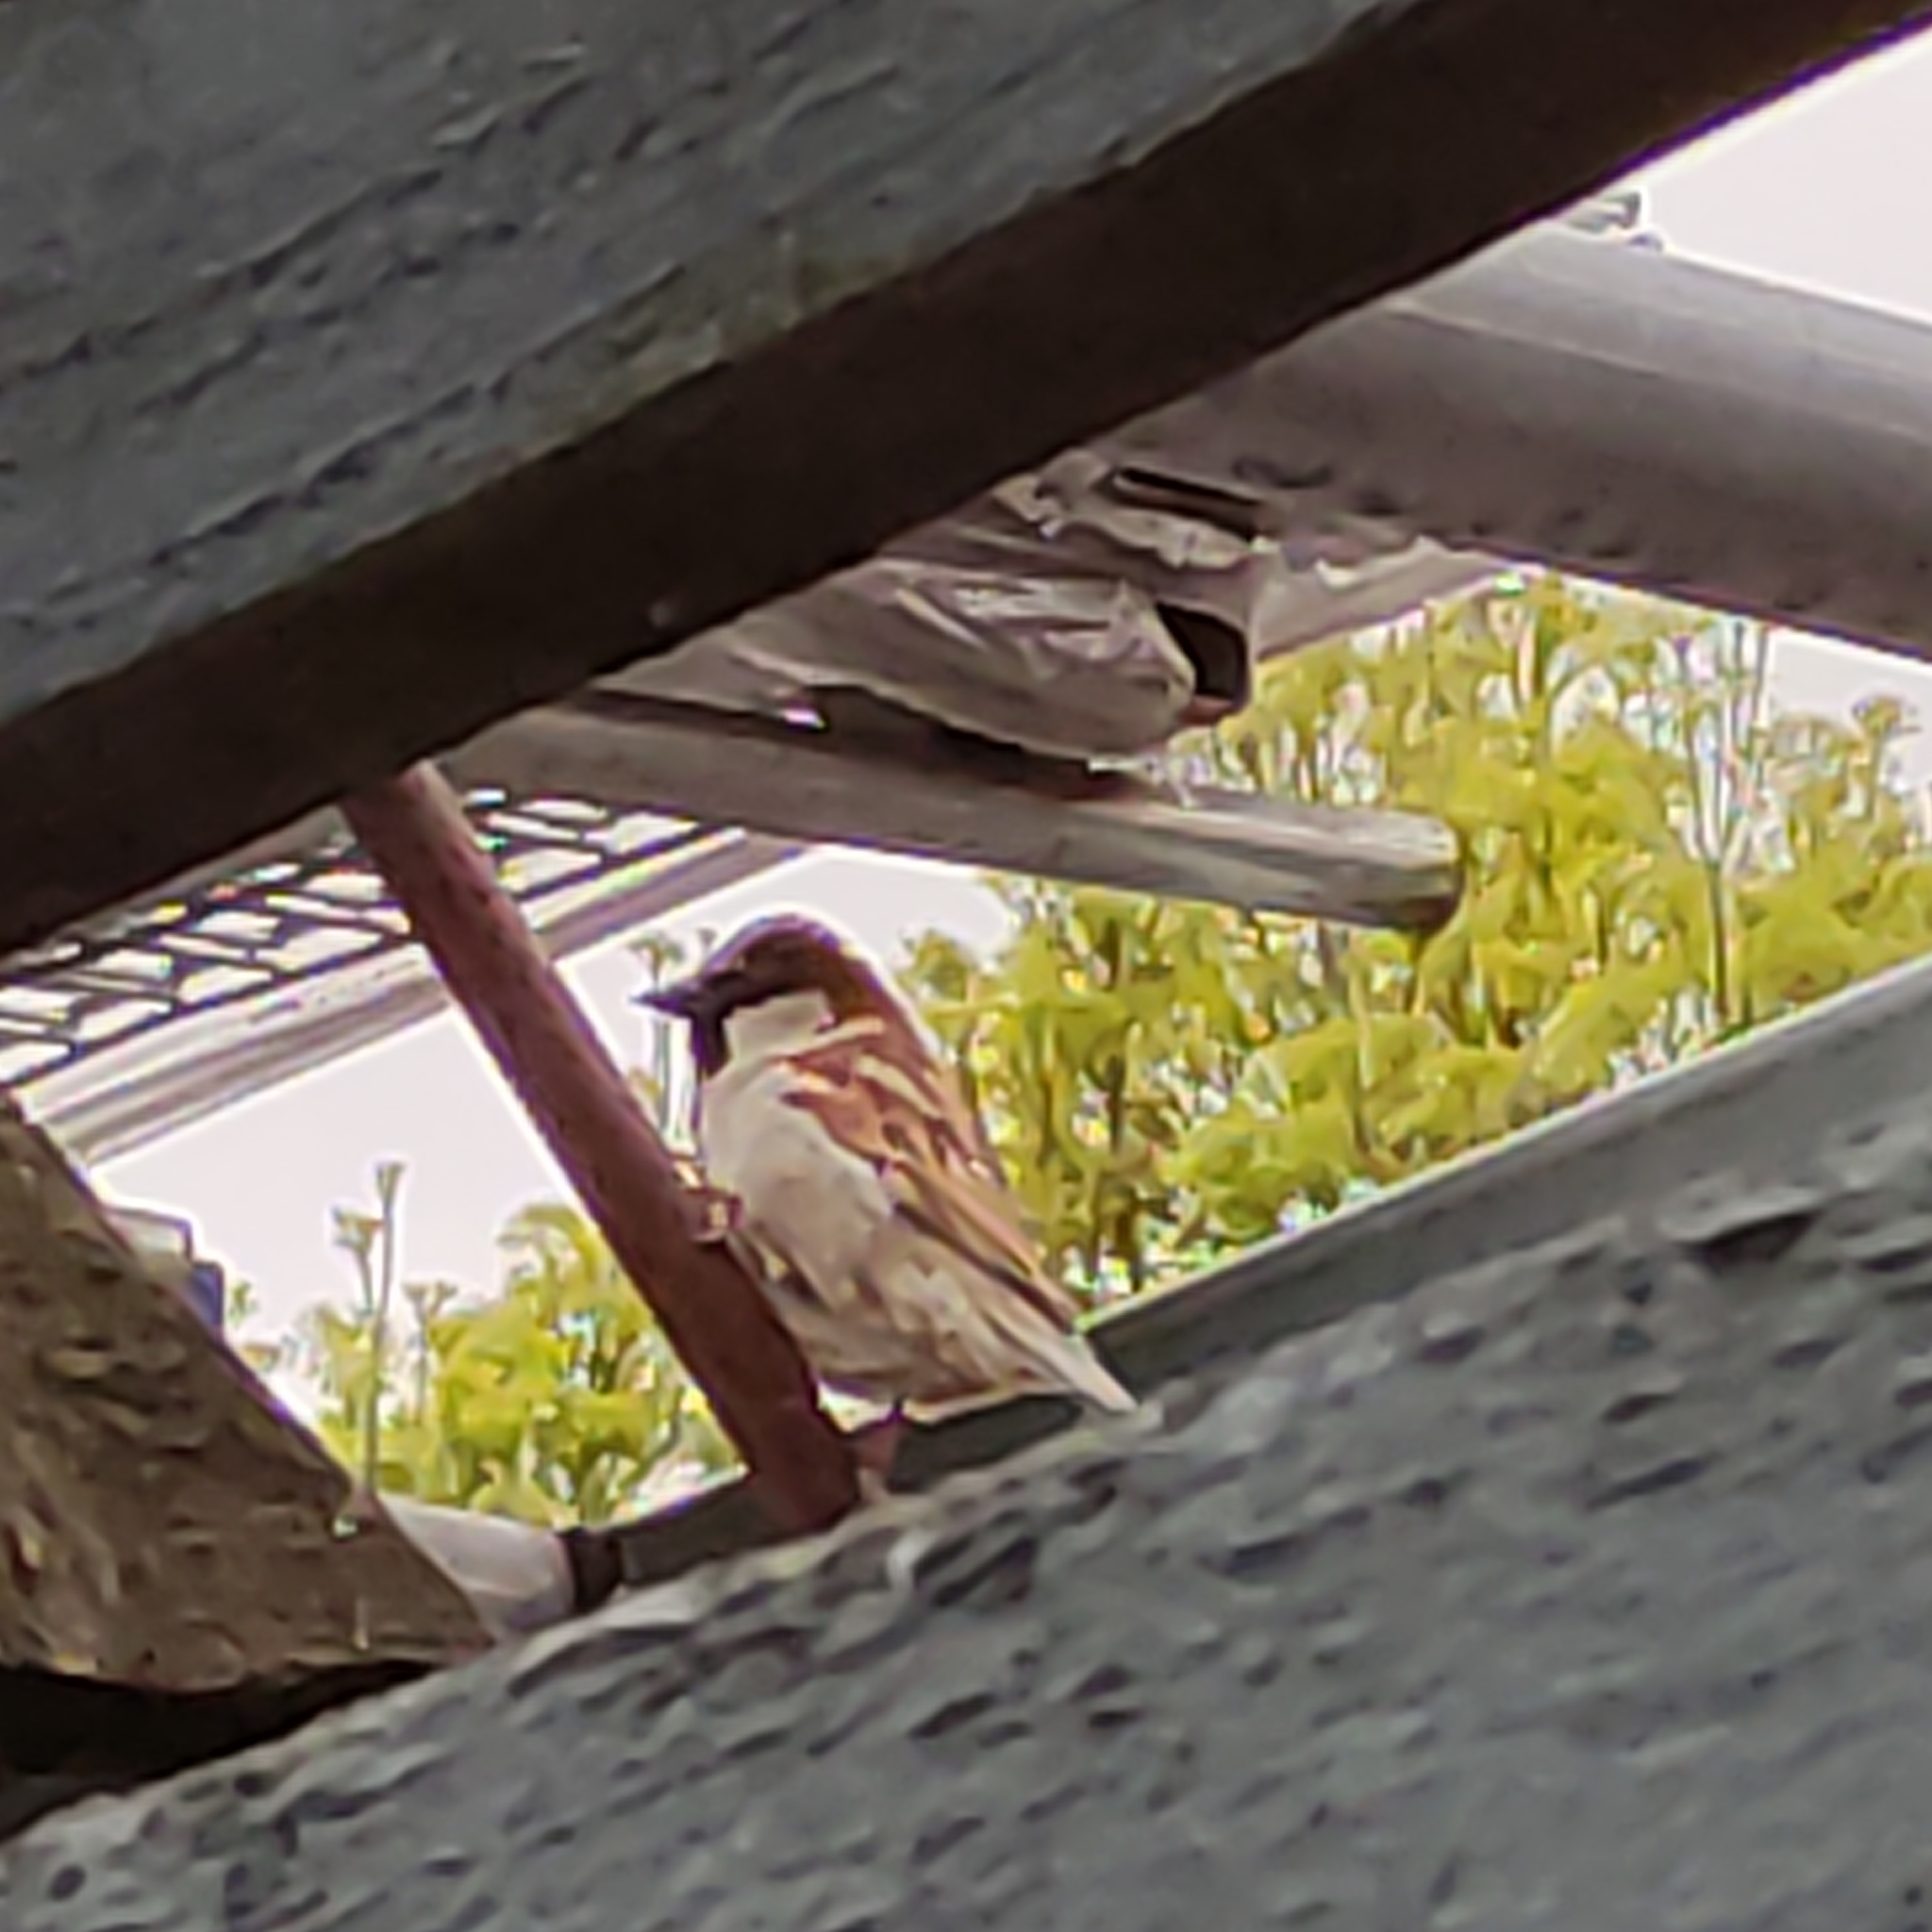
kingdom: Animalia
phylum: Chordata
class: Aves
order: Passeriformes
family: Passeridae
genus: Passer
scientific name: Passer domesticus
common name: House sparrow
